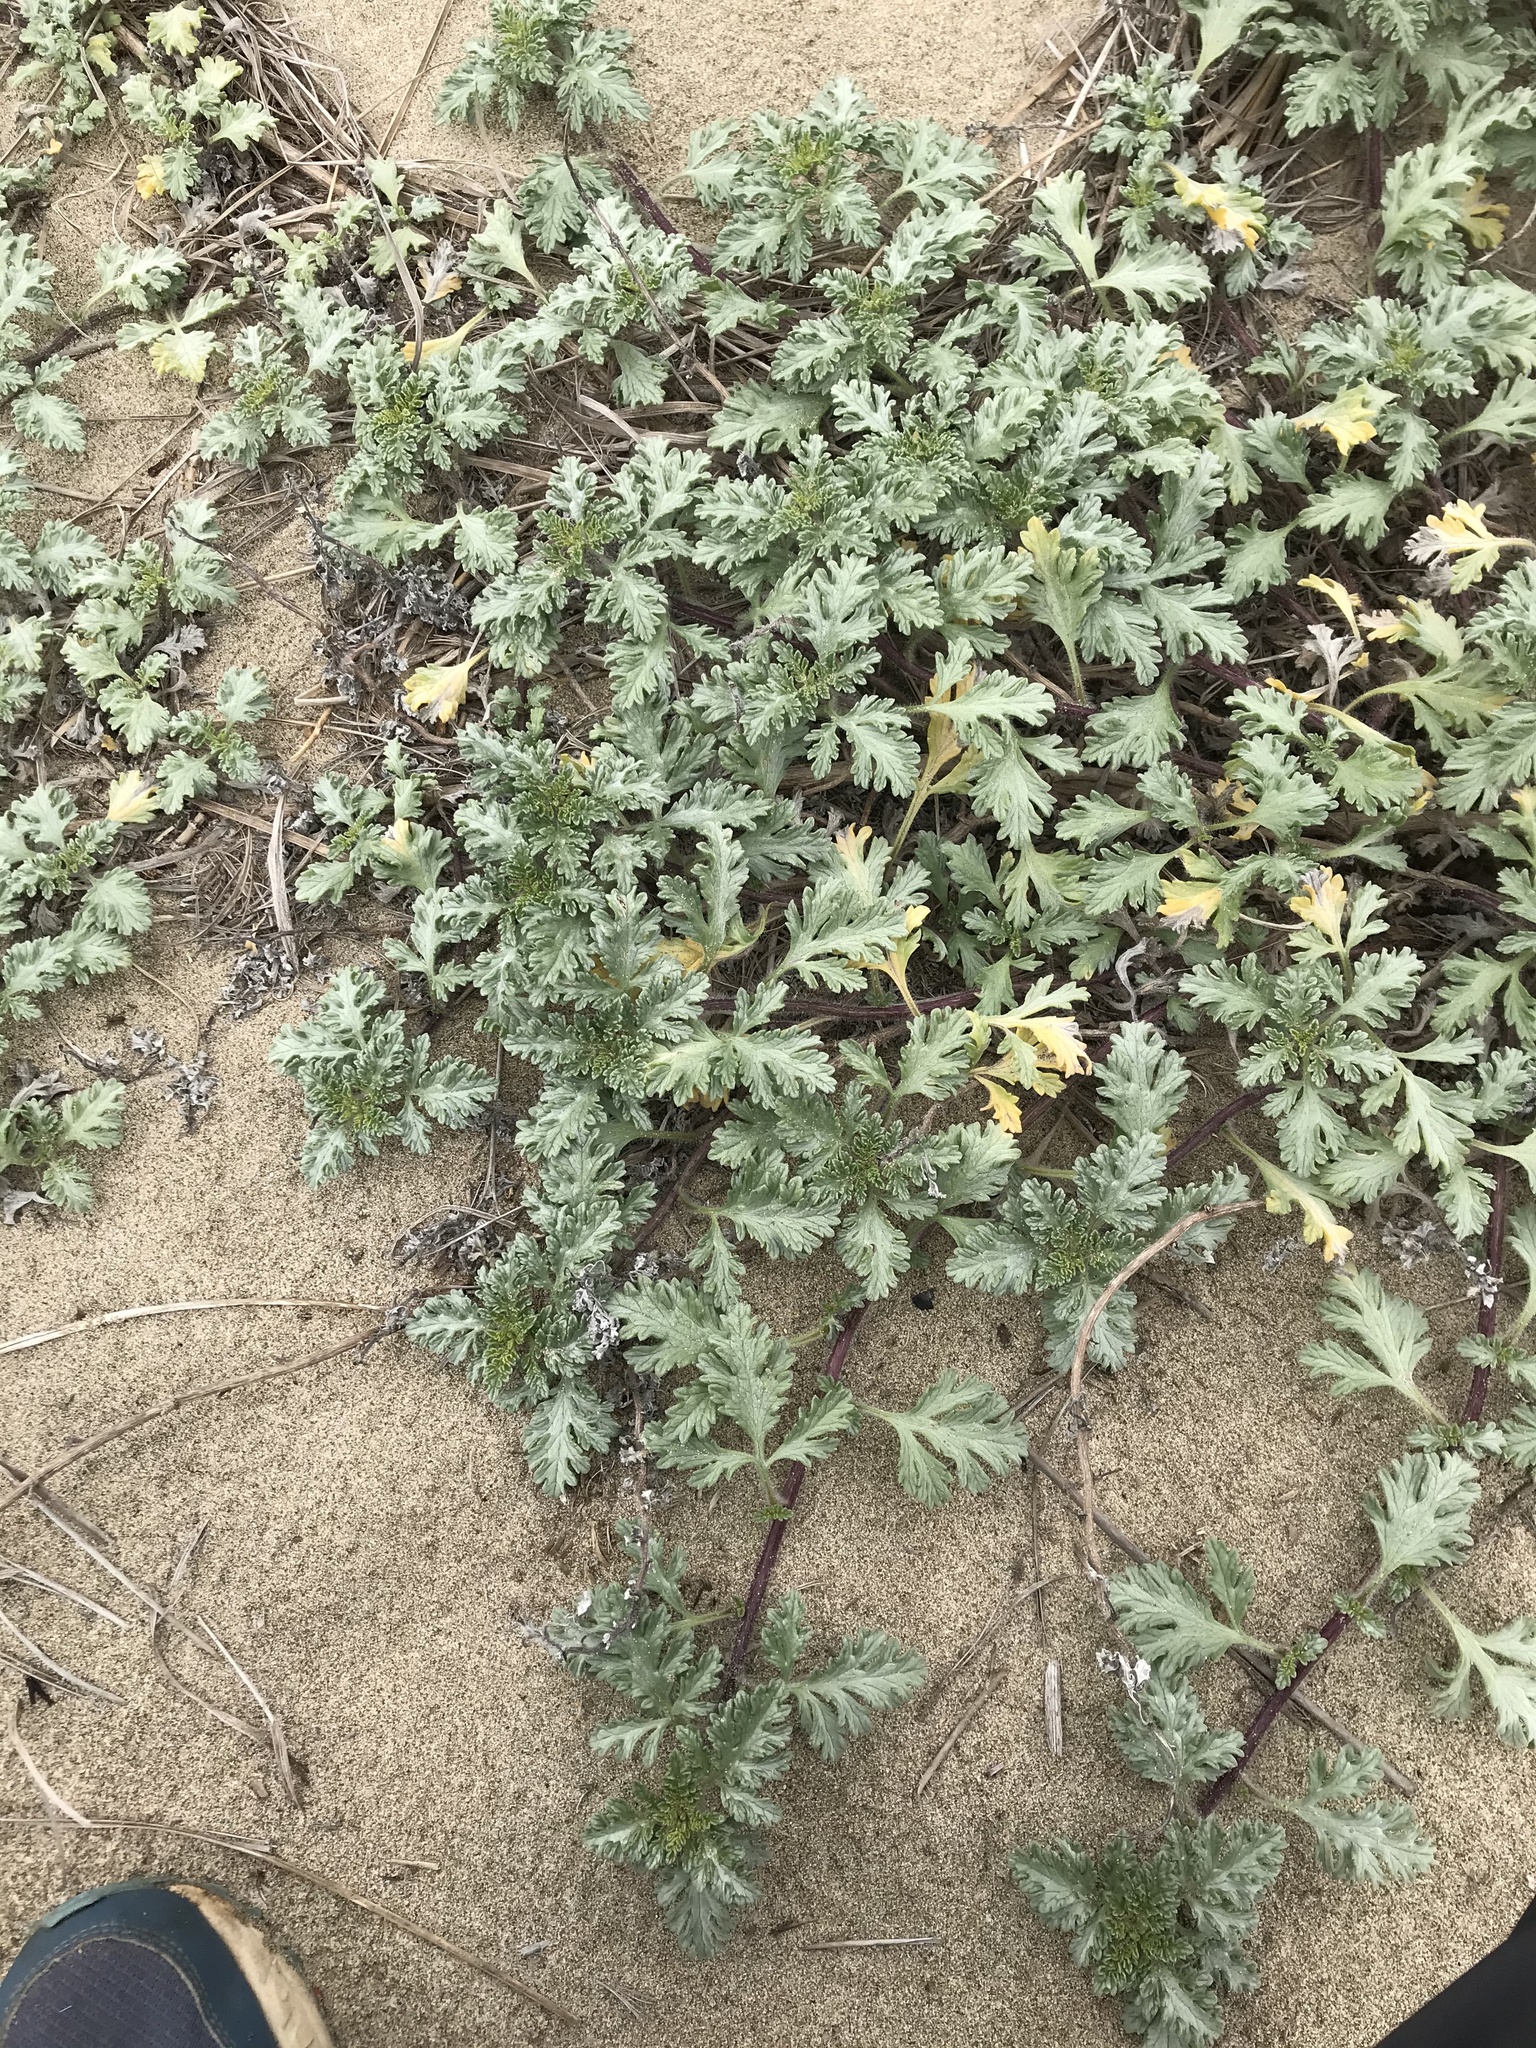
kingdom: Plantae
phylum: Tracheophyta
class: Magnoliopsida
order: Asterales
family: Asteraceae
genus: Ambrosia
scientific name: Ambrosia chamissonis
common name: Beachbur
